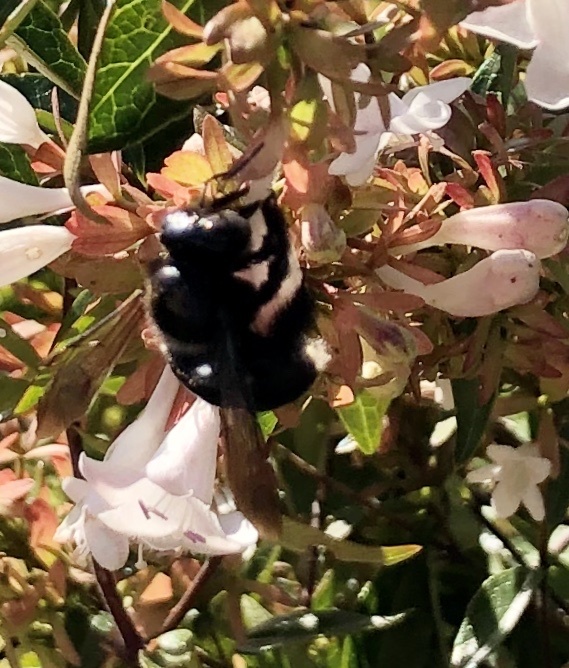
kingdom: Animalia
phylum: Arthropoda
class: Insecta
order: Hymenoptera
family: Apidae
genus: Xylocopa
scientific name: Xylocopa micans
